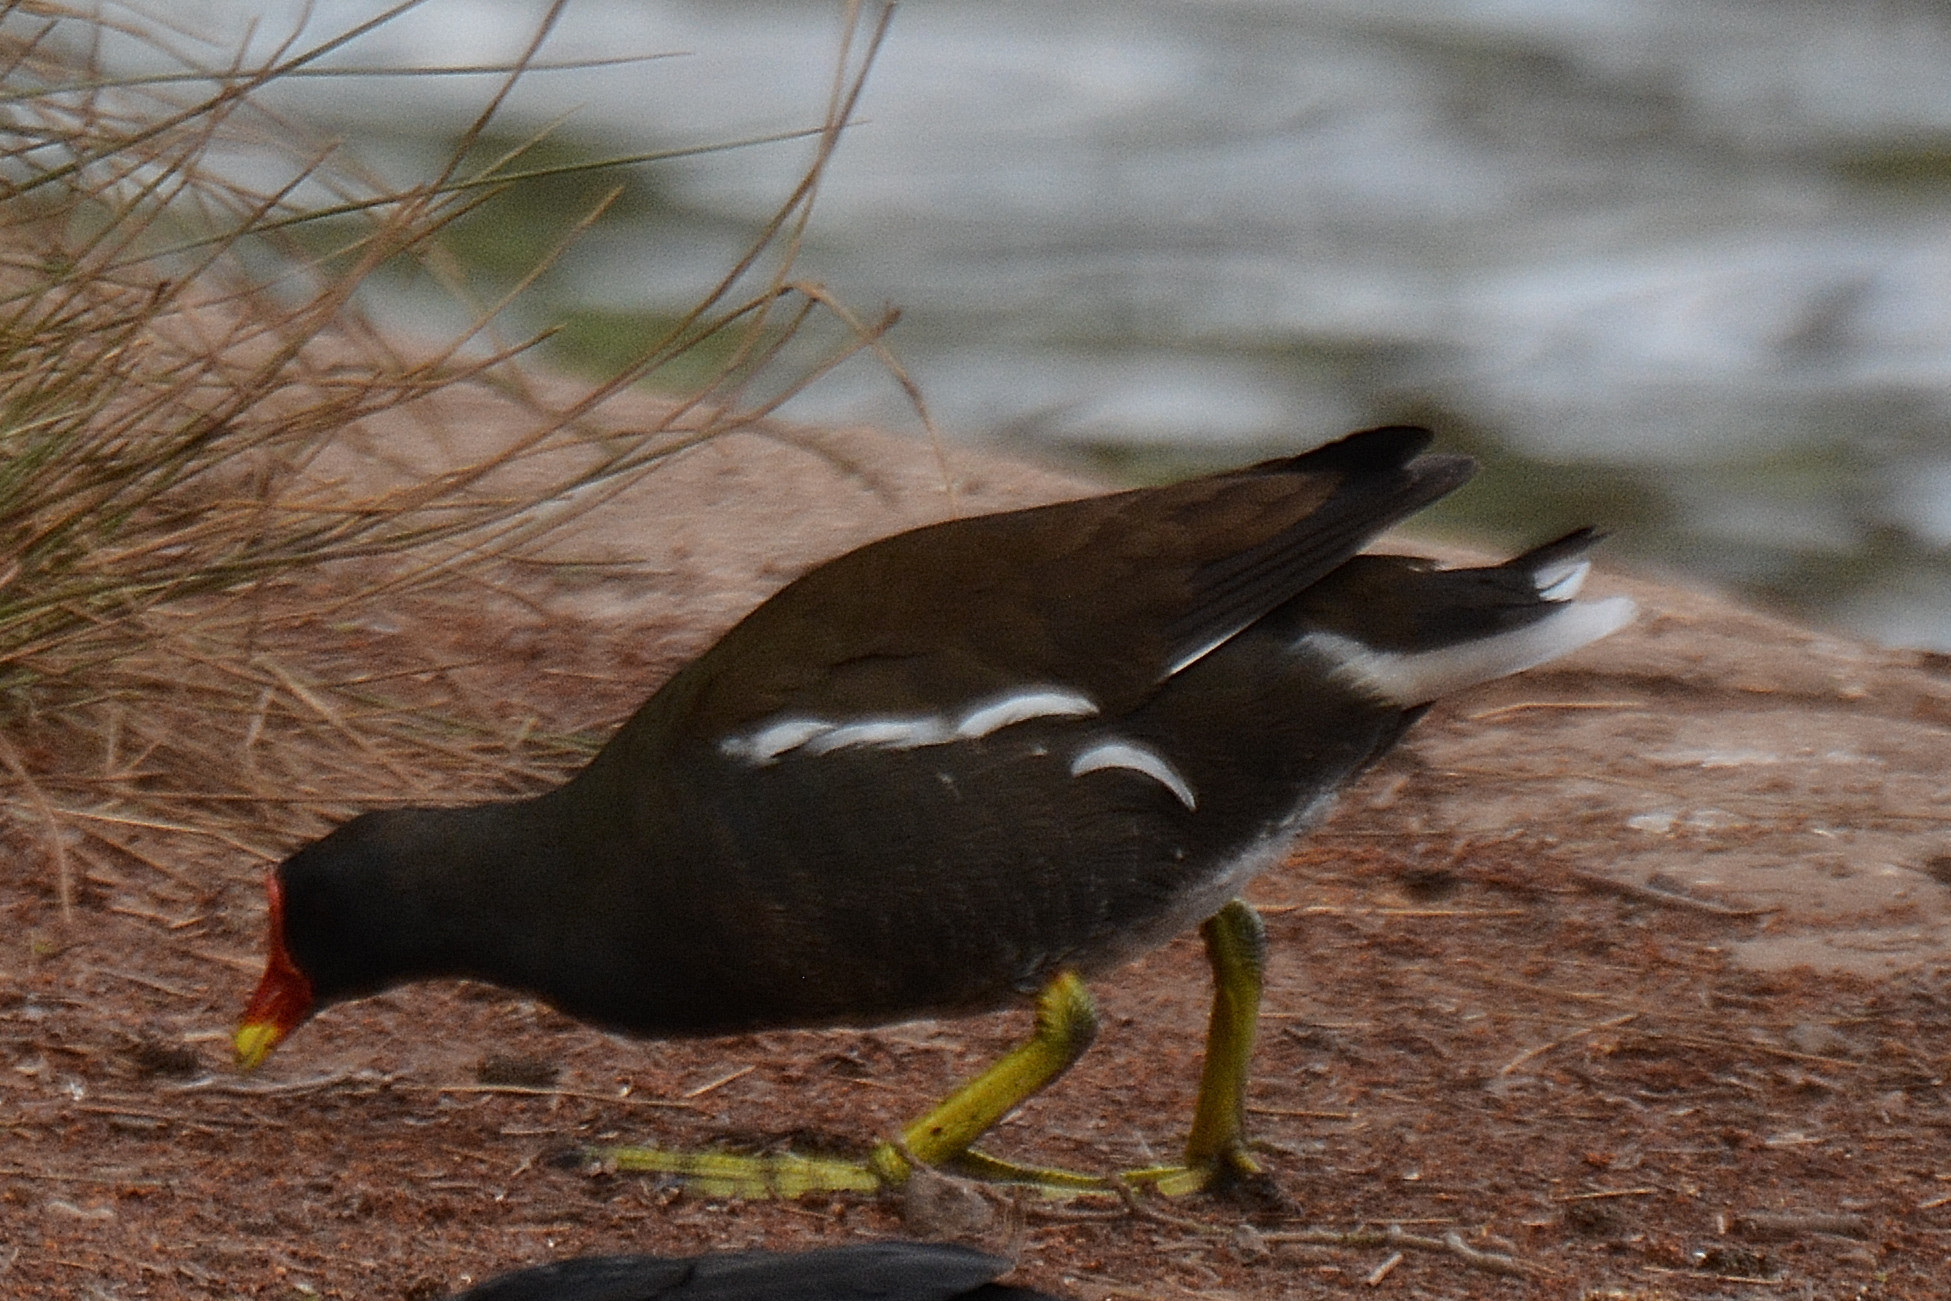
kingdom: Animalia
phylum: Chordata
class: Aves
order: Gruiformes
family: Rallidae
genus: Gallinula
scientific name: Gallinula chloropus
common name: Common moorhen
